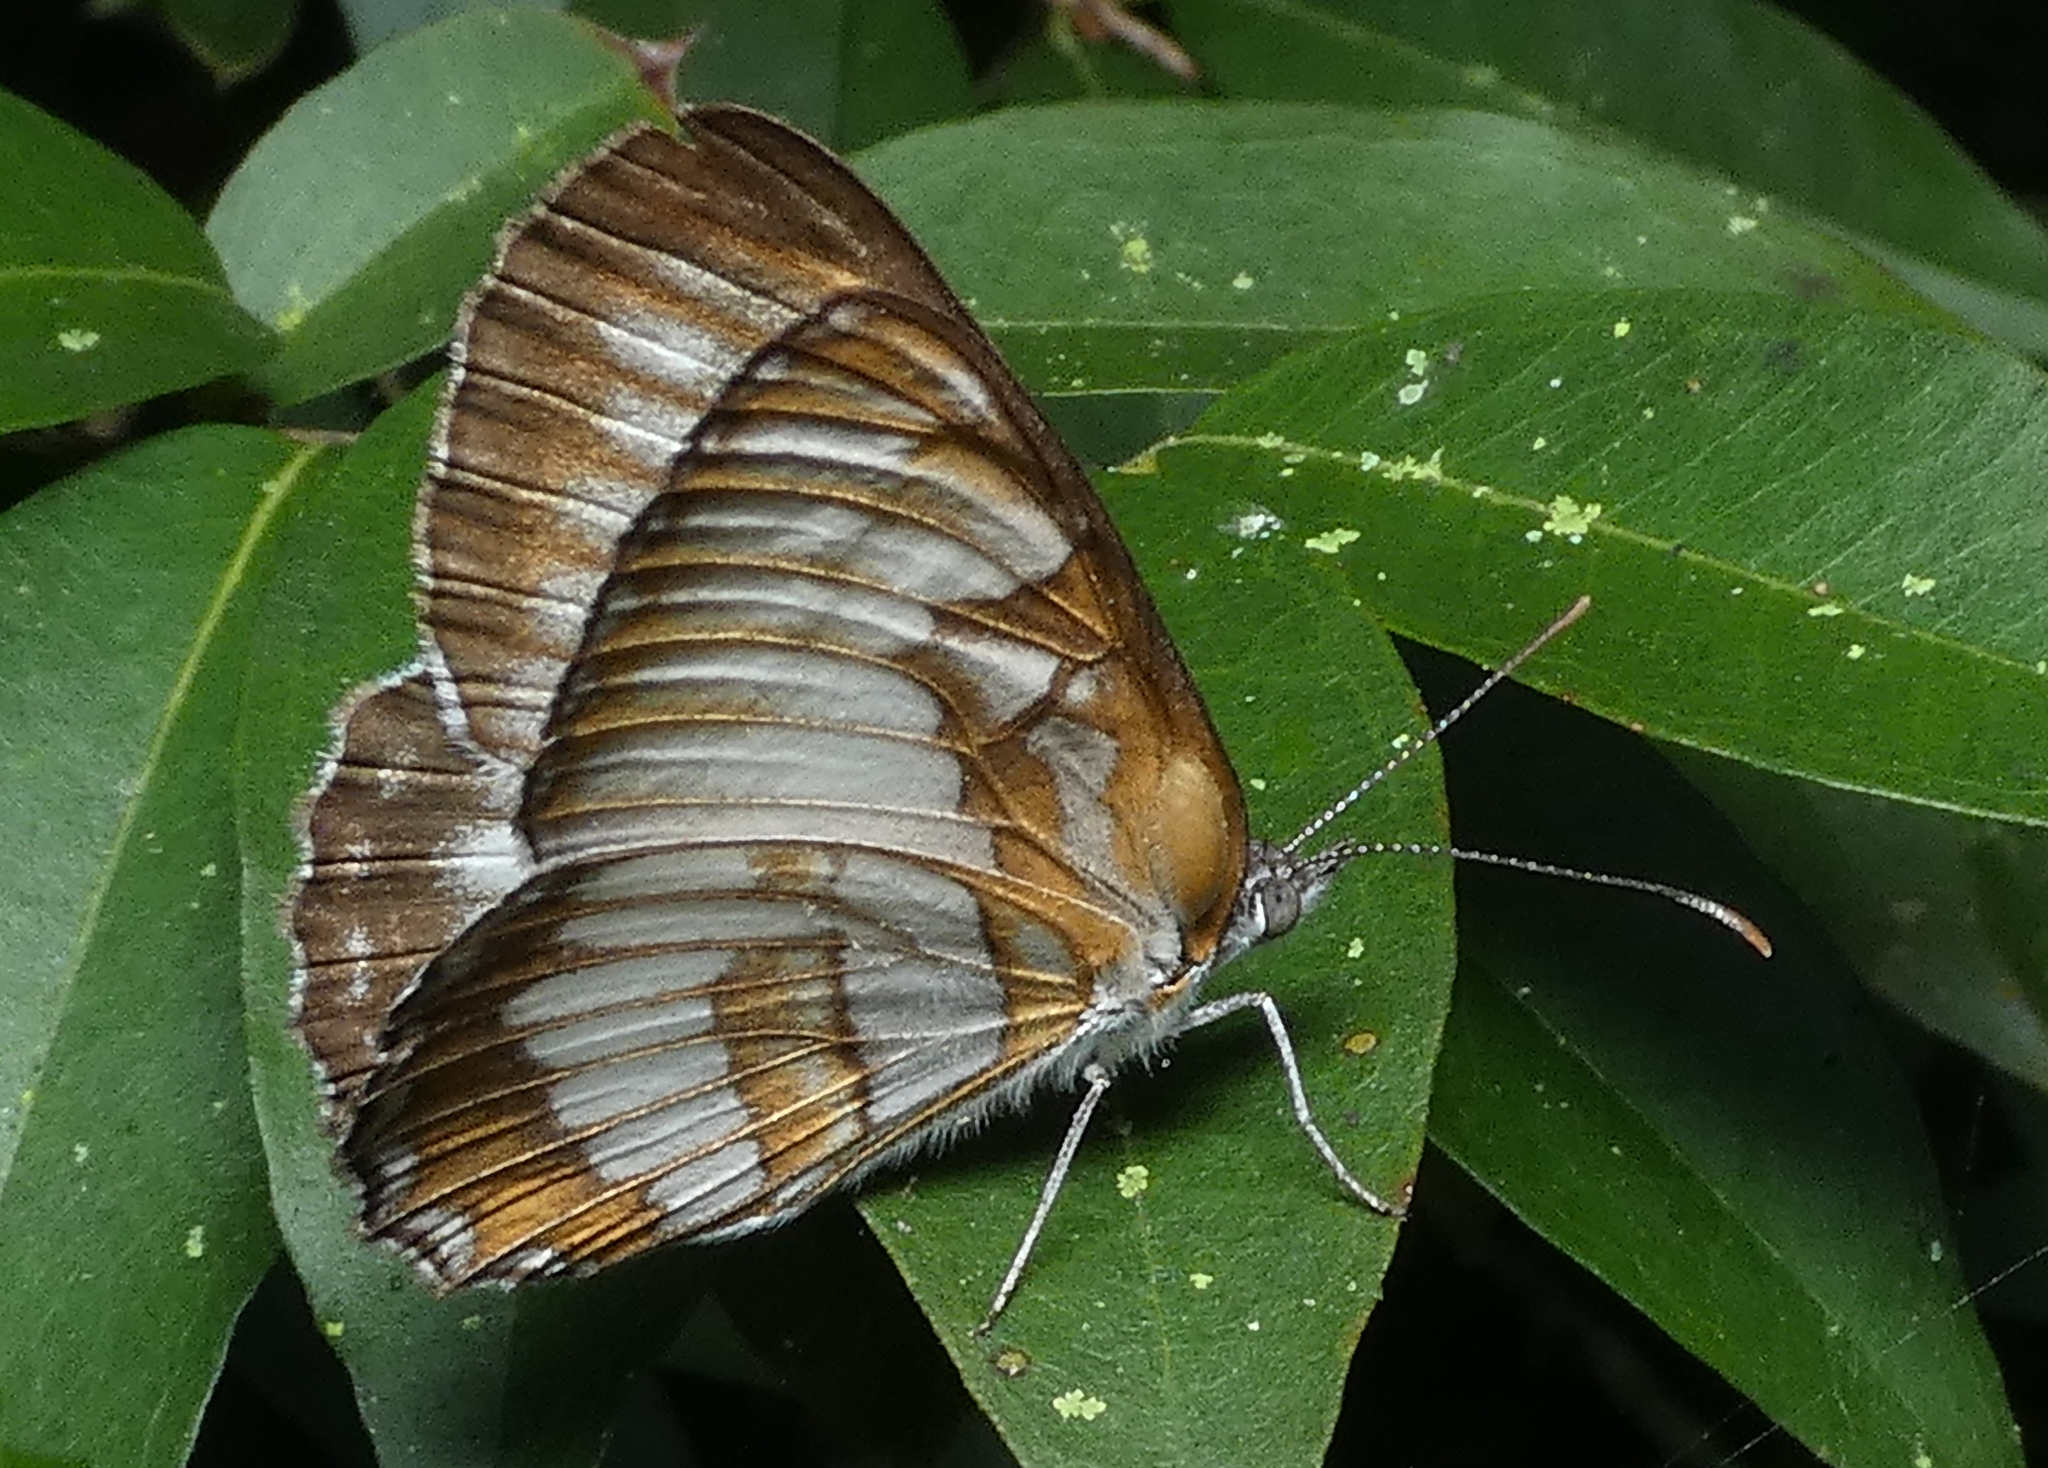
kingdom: Animalia
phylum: Arthropoda
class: Insecta
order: Lepidoptera
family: Nymphalidae
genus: Mestra
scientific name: Mestra hersilia
